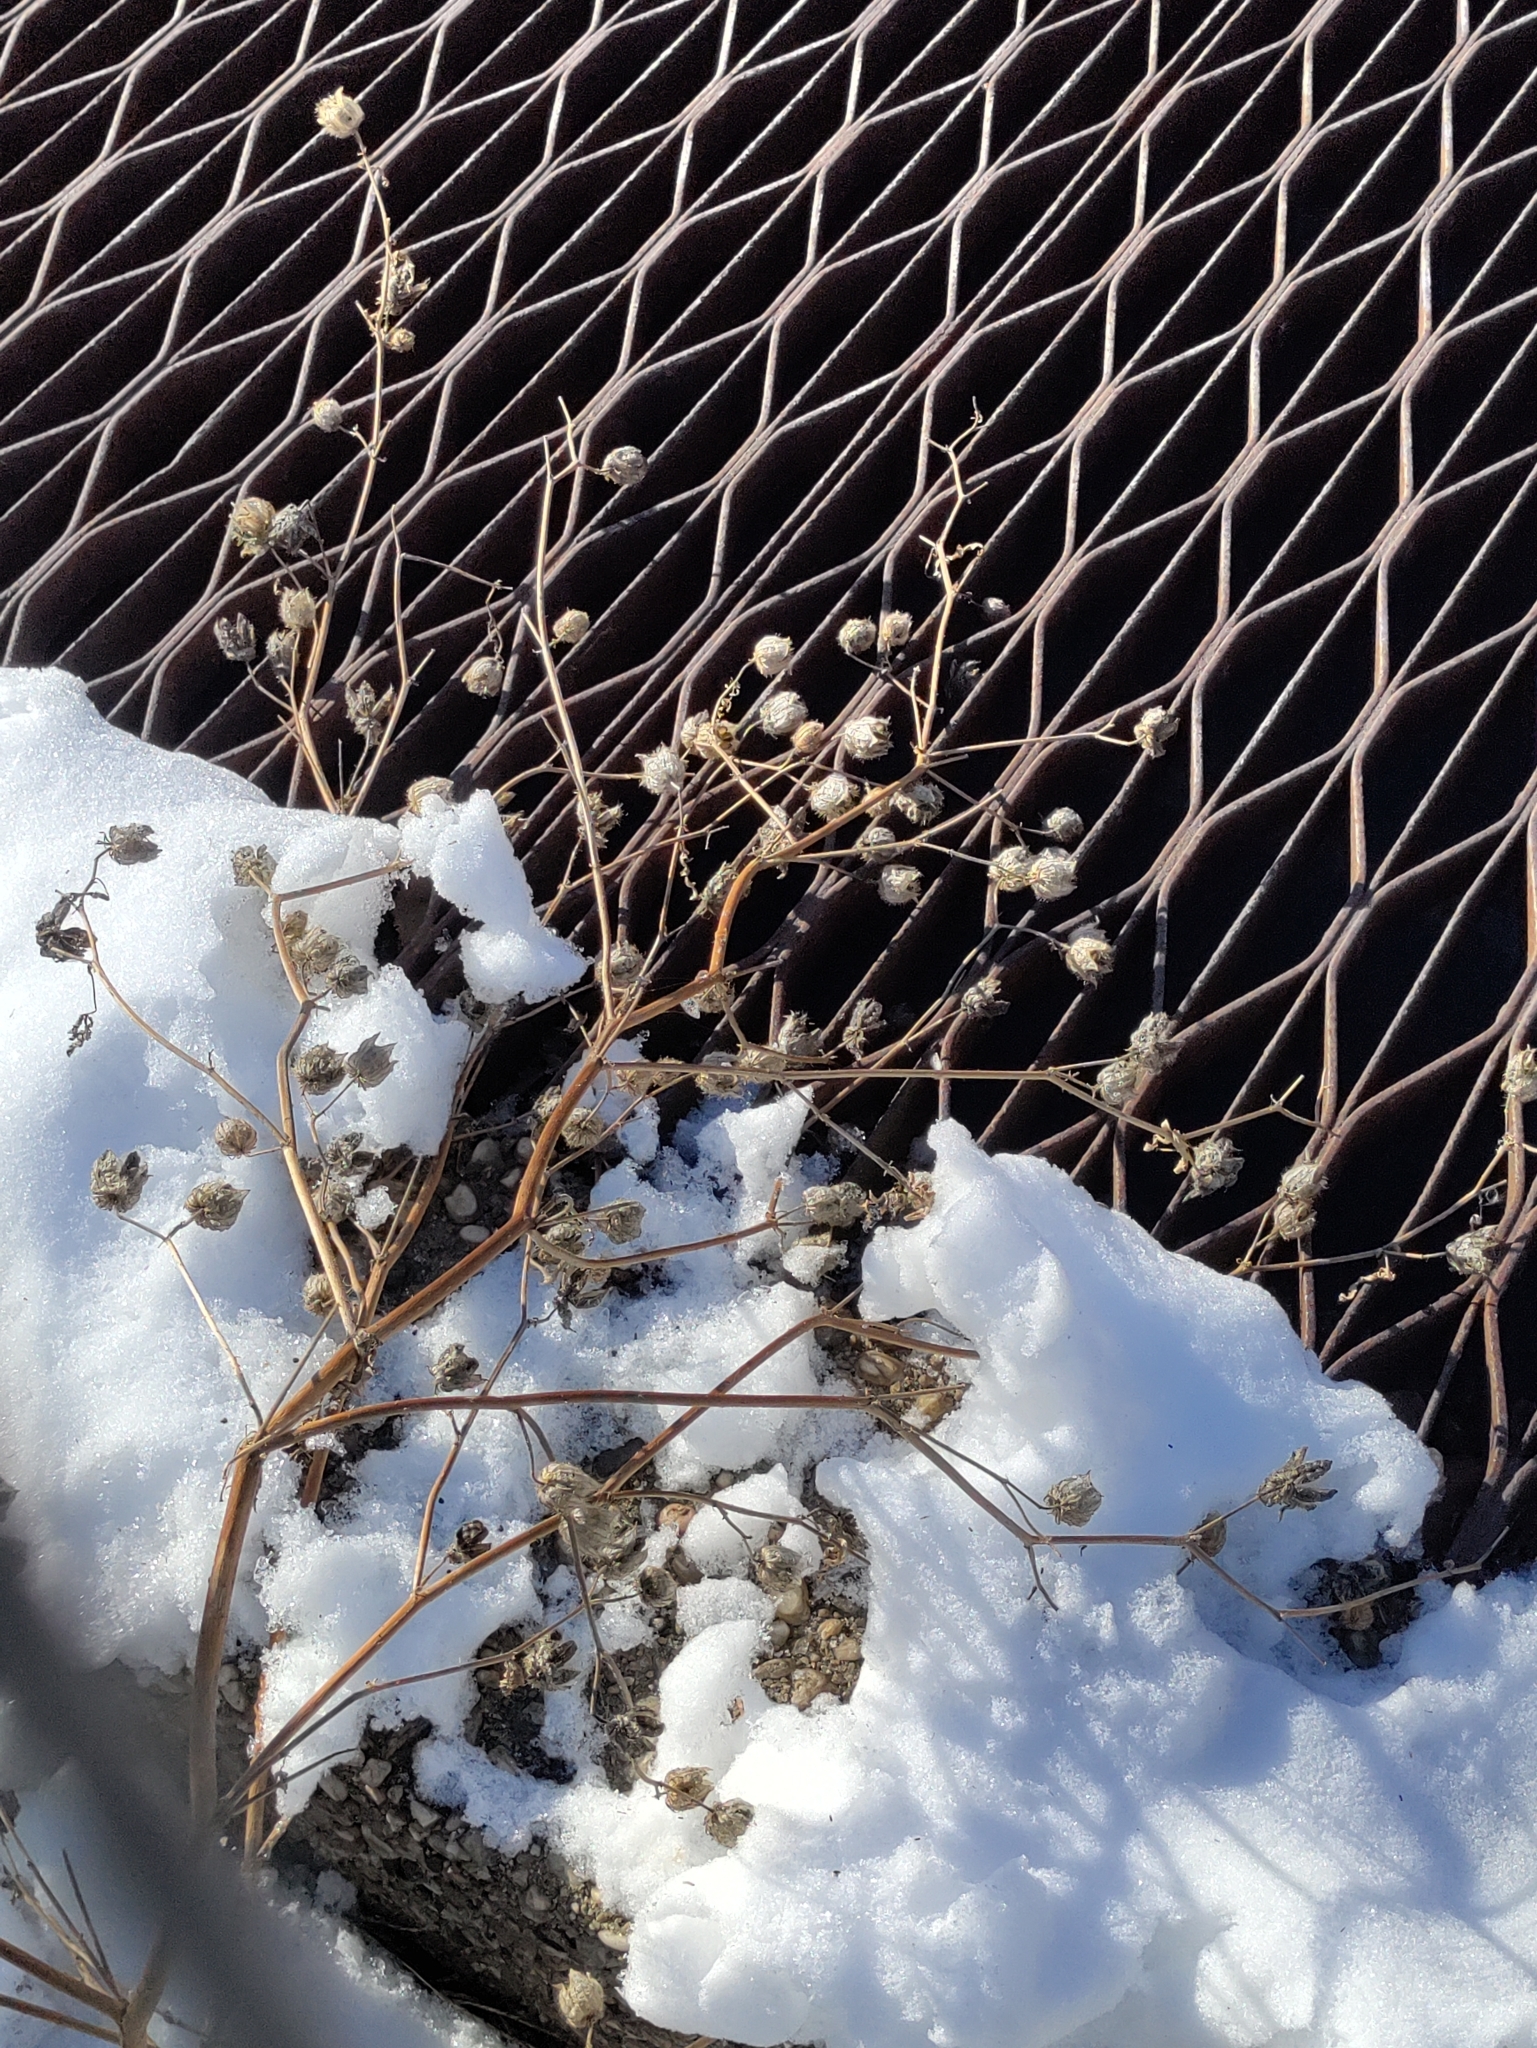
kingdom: Plantae
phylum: Tracheophyta
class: Magnoliopsida
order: Malvales
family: Malvaceae
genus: Hibiscus
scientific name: Hibiscus trionum
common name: Bladder ketmia
